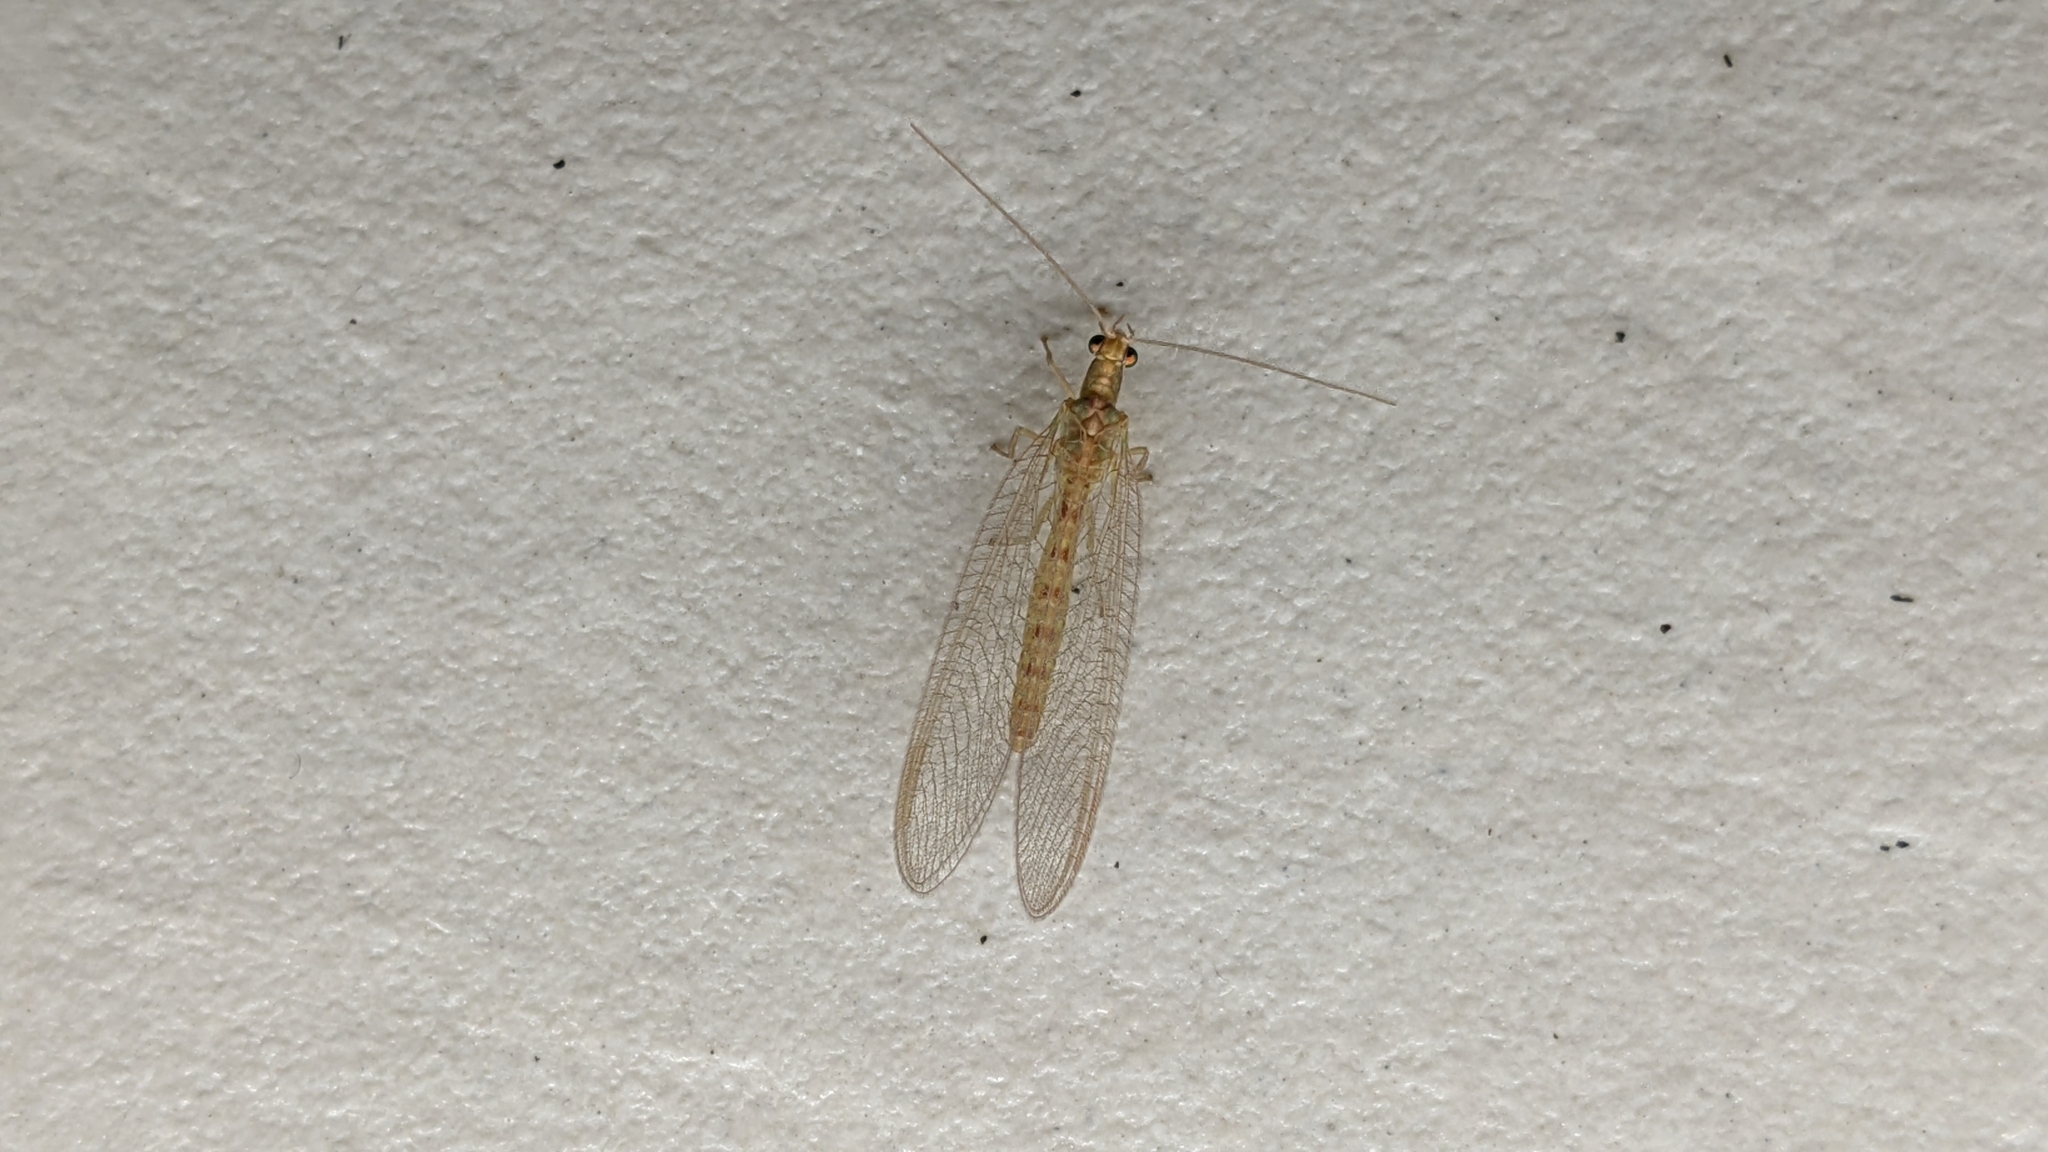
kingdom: Animalia
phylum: Arthropoda
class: Insecta
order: Neuroptera
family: Chrysopidae
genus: Chrysoperla
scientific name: Chrysoperla carnea
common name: Common green lacewing
